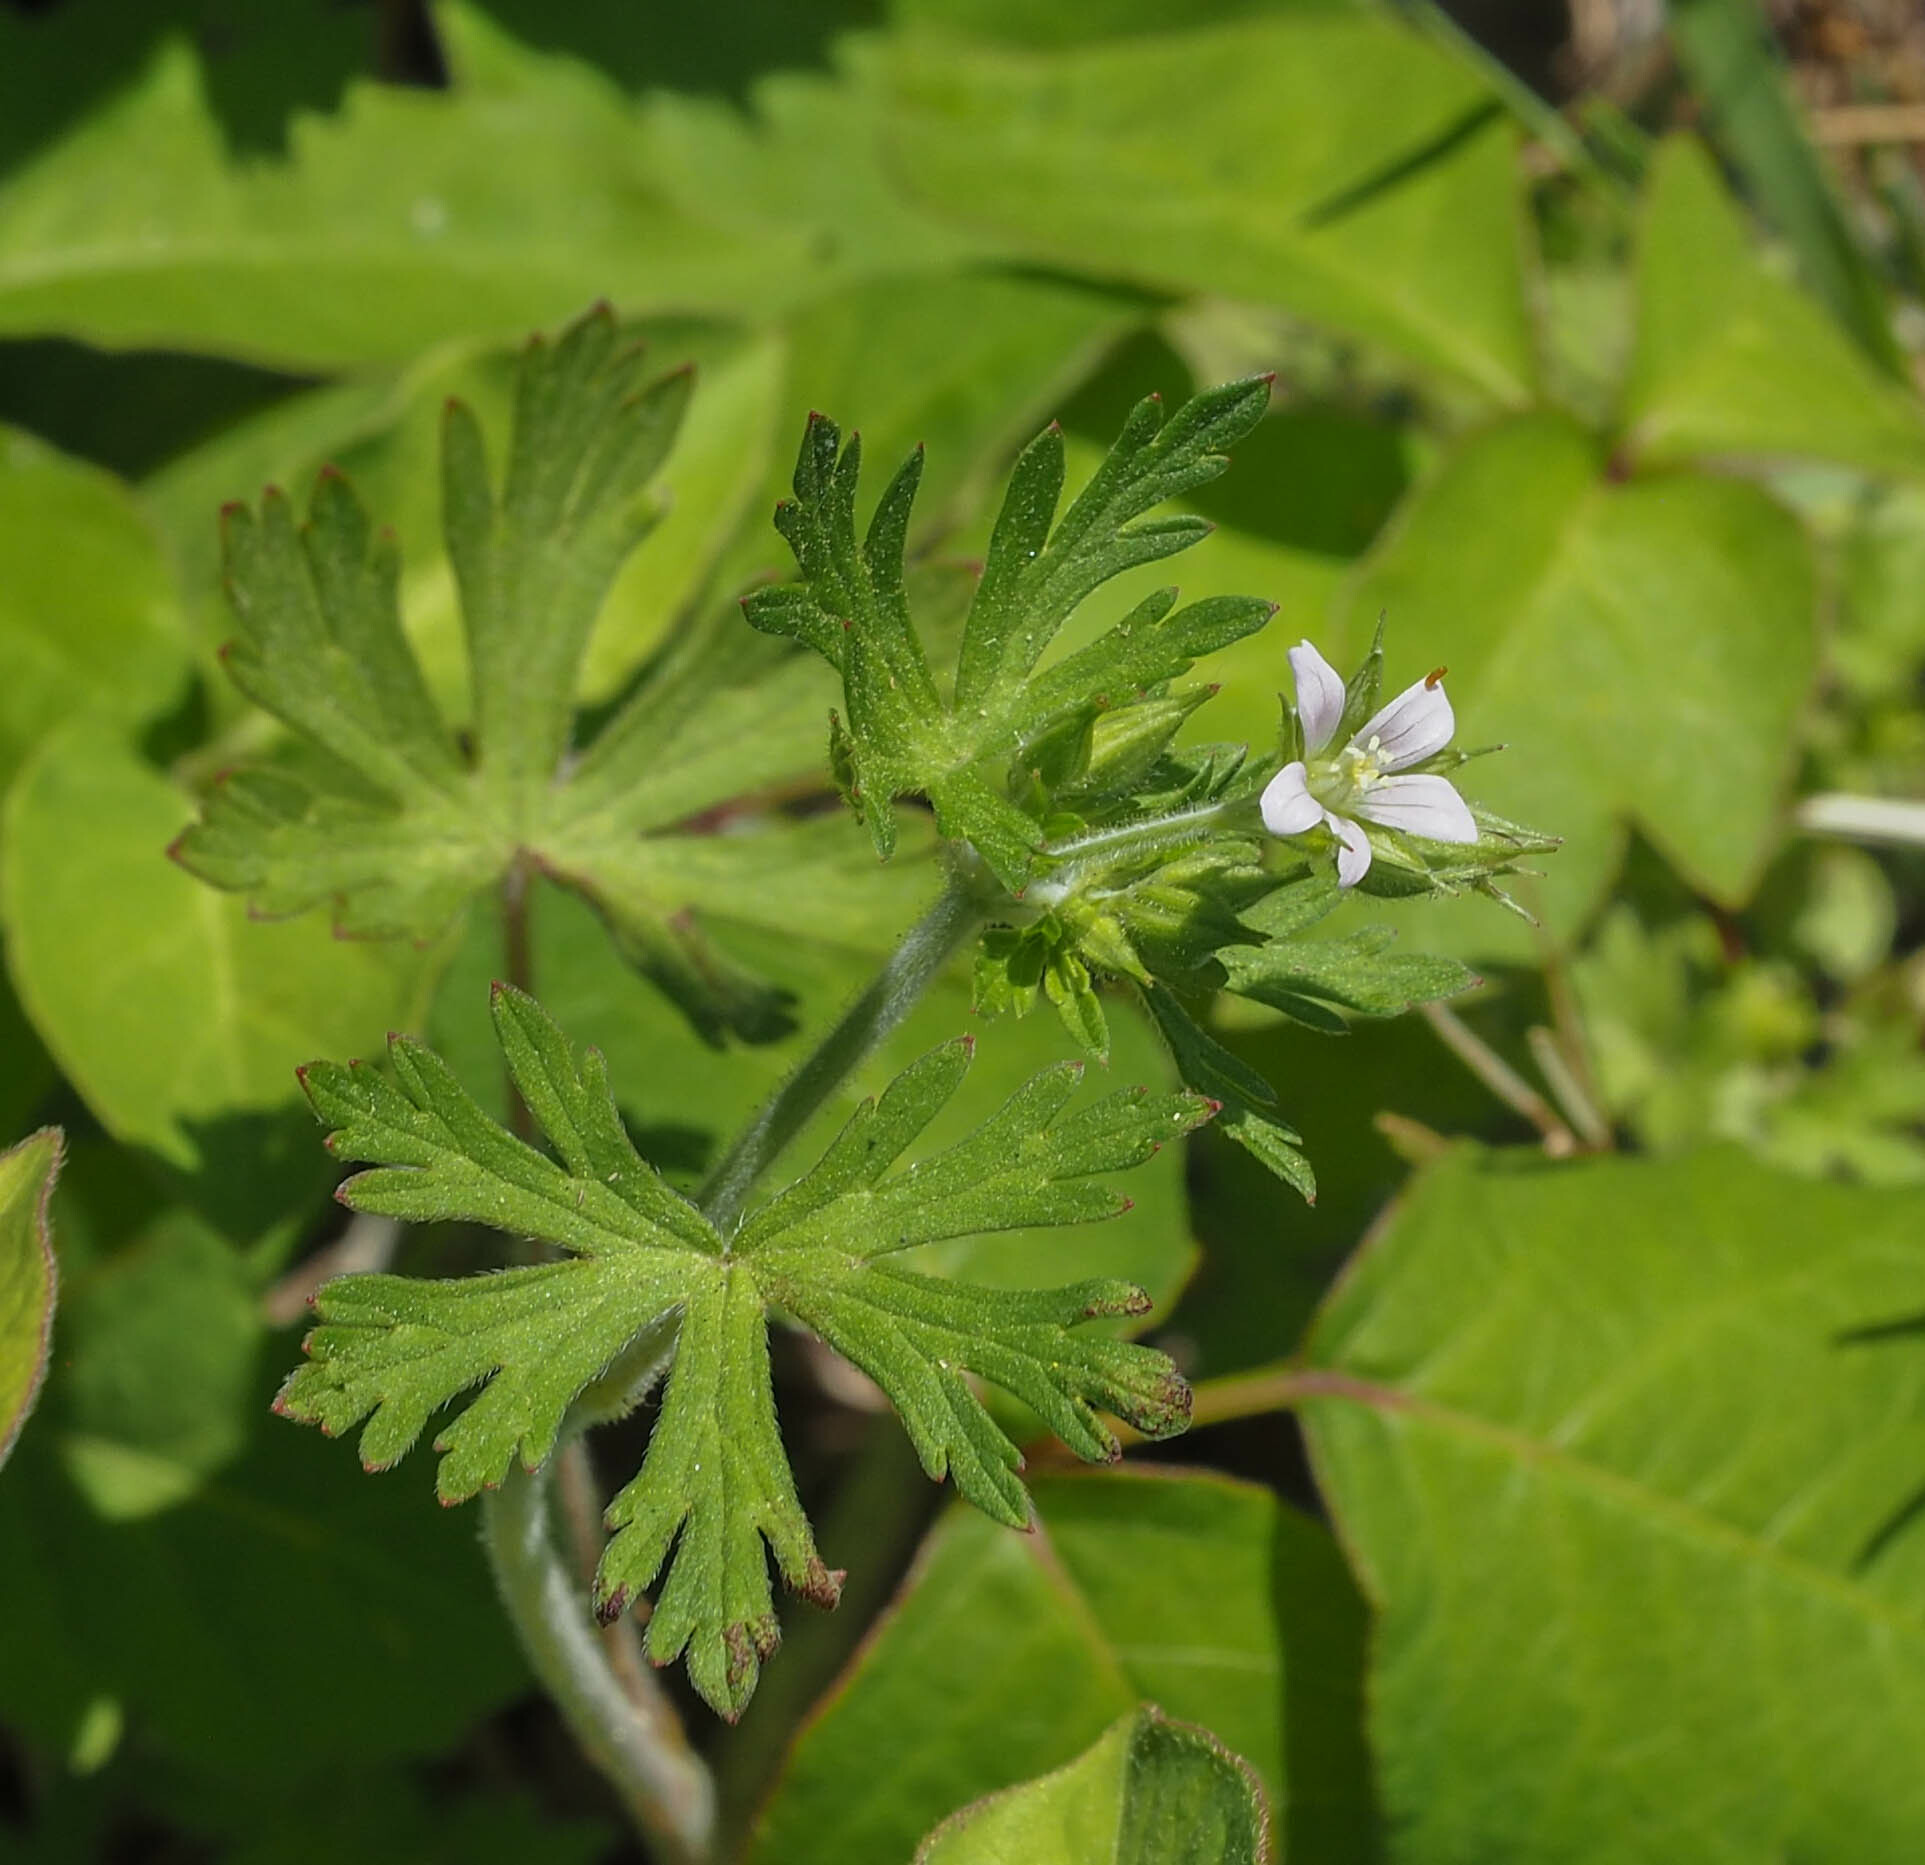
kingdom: Plantae
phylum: Tracheophyta
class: Magnoliopsida
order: Geraniales
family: Geraniaceae
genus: Geranium
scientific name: Geranium carolinianum
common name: Carolina crane's-bill
